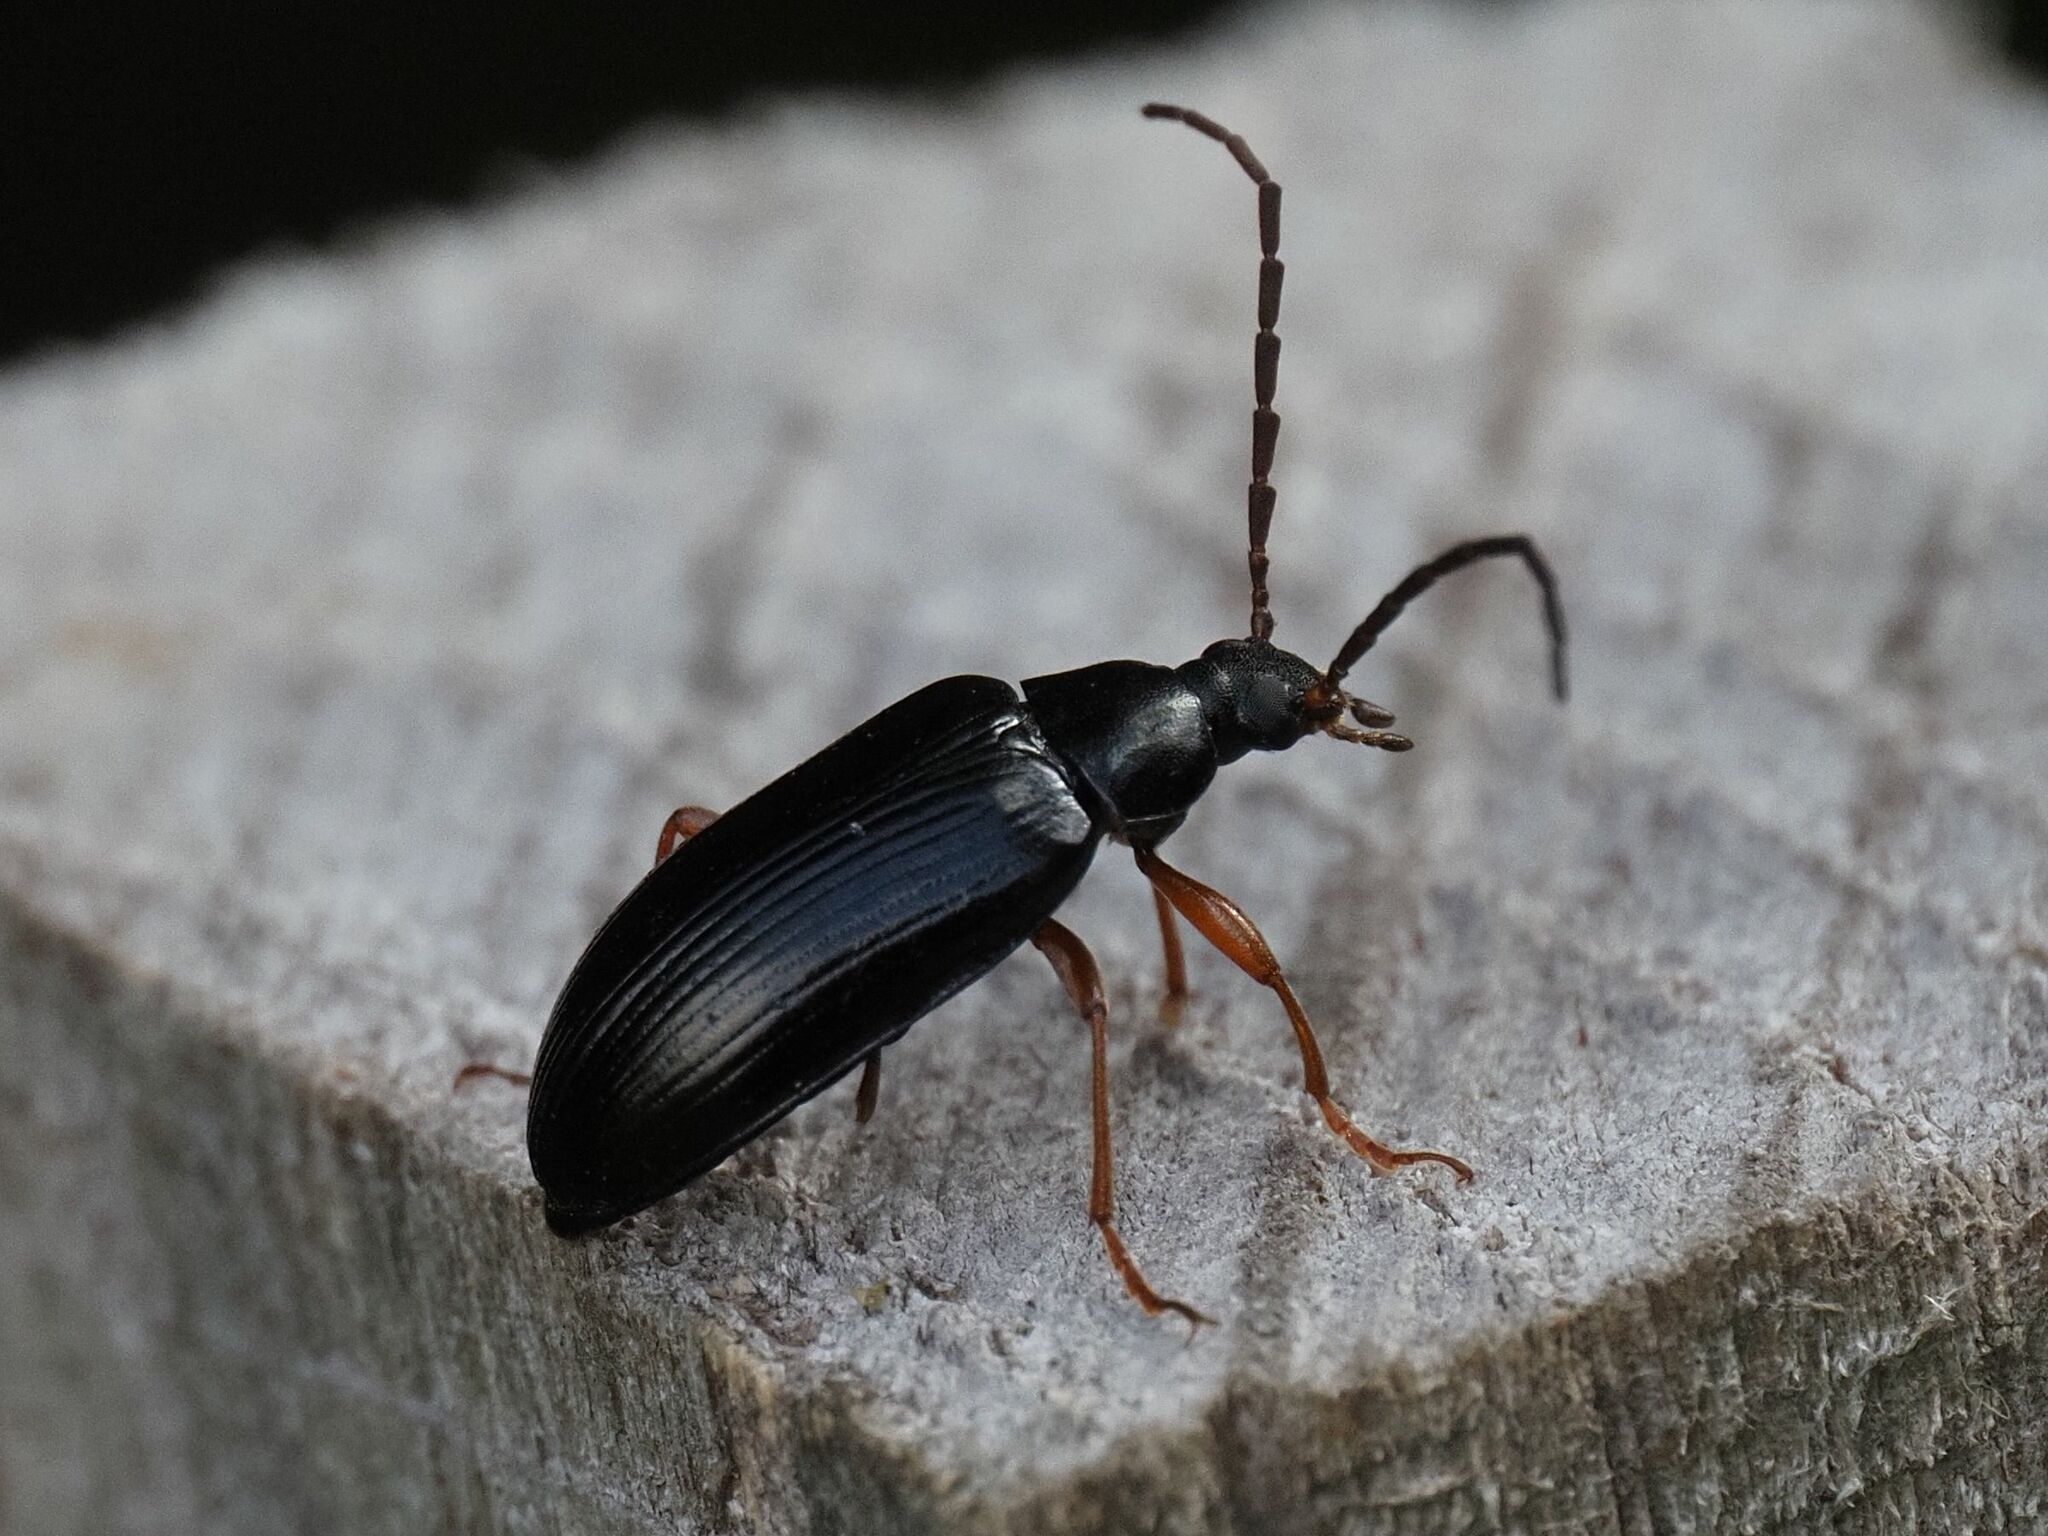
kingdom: Animalia
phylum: Arthropoda
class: Insecta
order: Coleoptera
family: Tenebrionidae
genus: Gonodera
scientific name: Gonodera luperus
